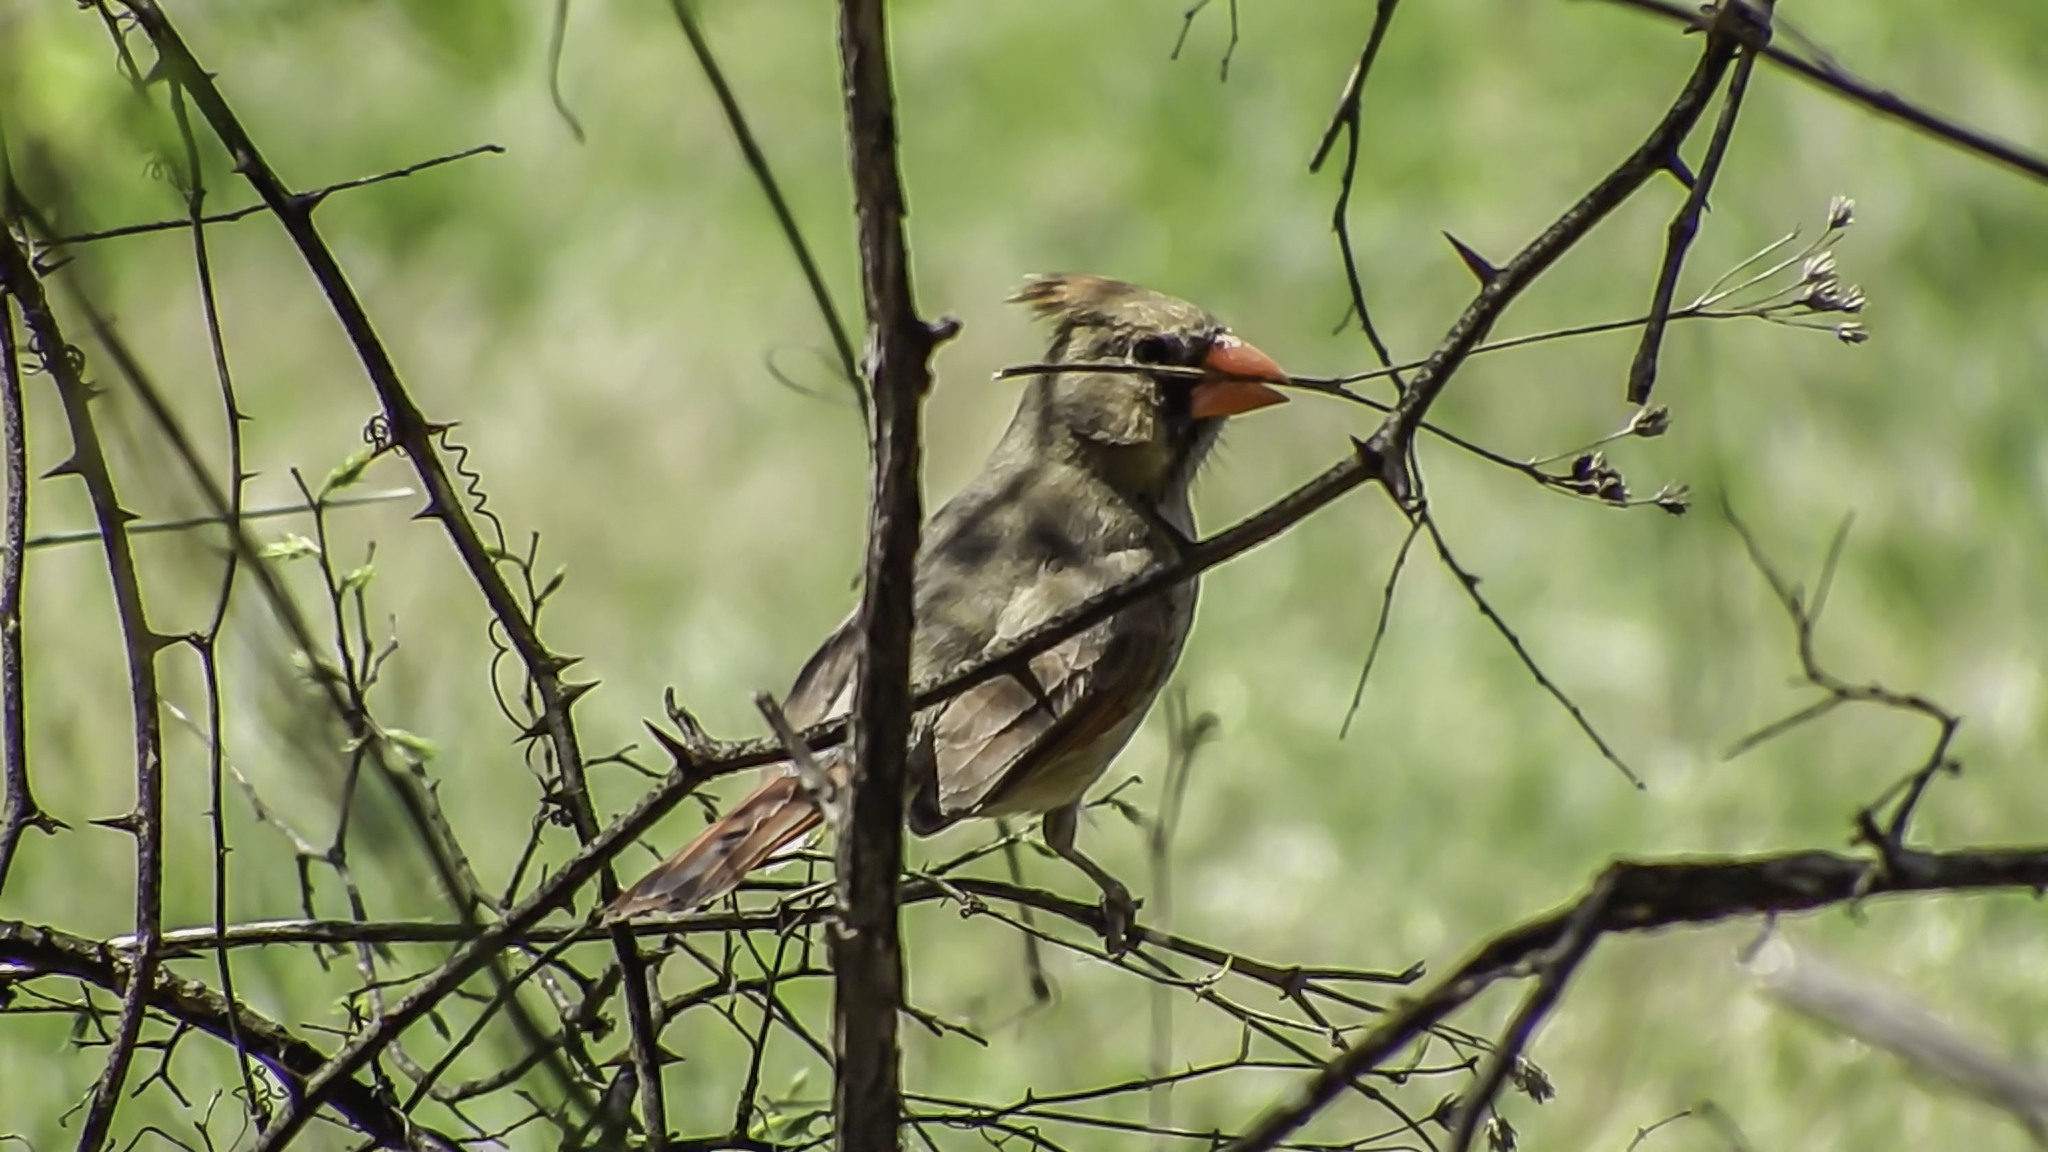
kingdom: Animalia
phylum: Chordata
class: Aves
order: Passeriformes
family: Cardinalidae
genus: Cardinalis
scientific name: Cardinalis cardinalis
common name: Northern cardinal
